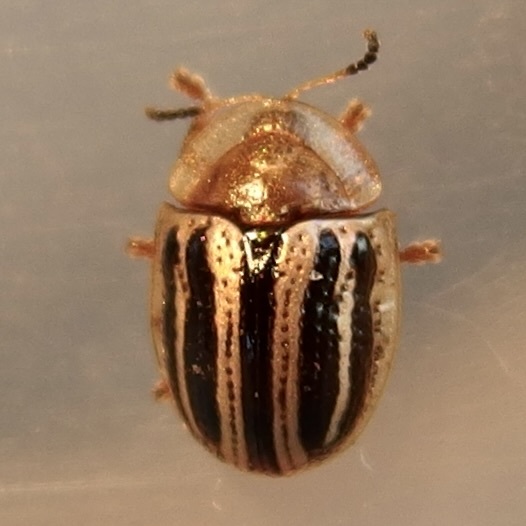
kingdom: Animalia
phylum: Arthropoda
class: Insecta
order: Coleoptera
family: Chrysomelidae
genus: Agroiconota
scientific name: Agroiconota bivittata
